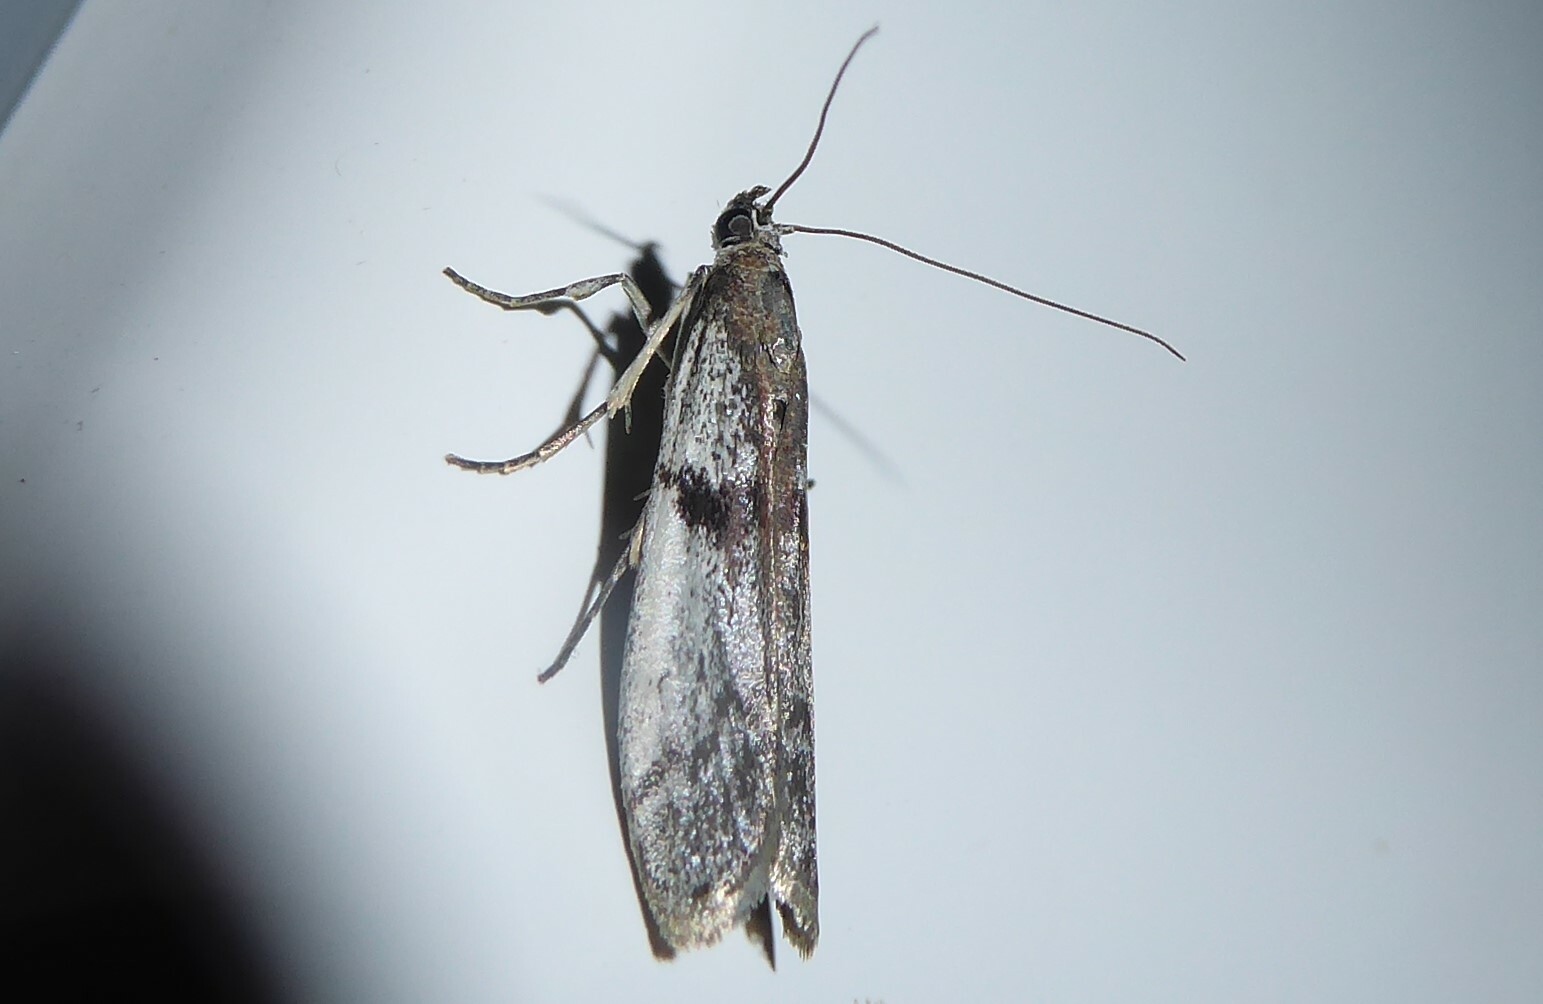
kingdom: Animalia
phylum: Arthropoda
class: Insecta
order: Lepidoptera
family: Pyralidae
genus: Patagoniodes
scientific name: Patagoniodes farinaria
